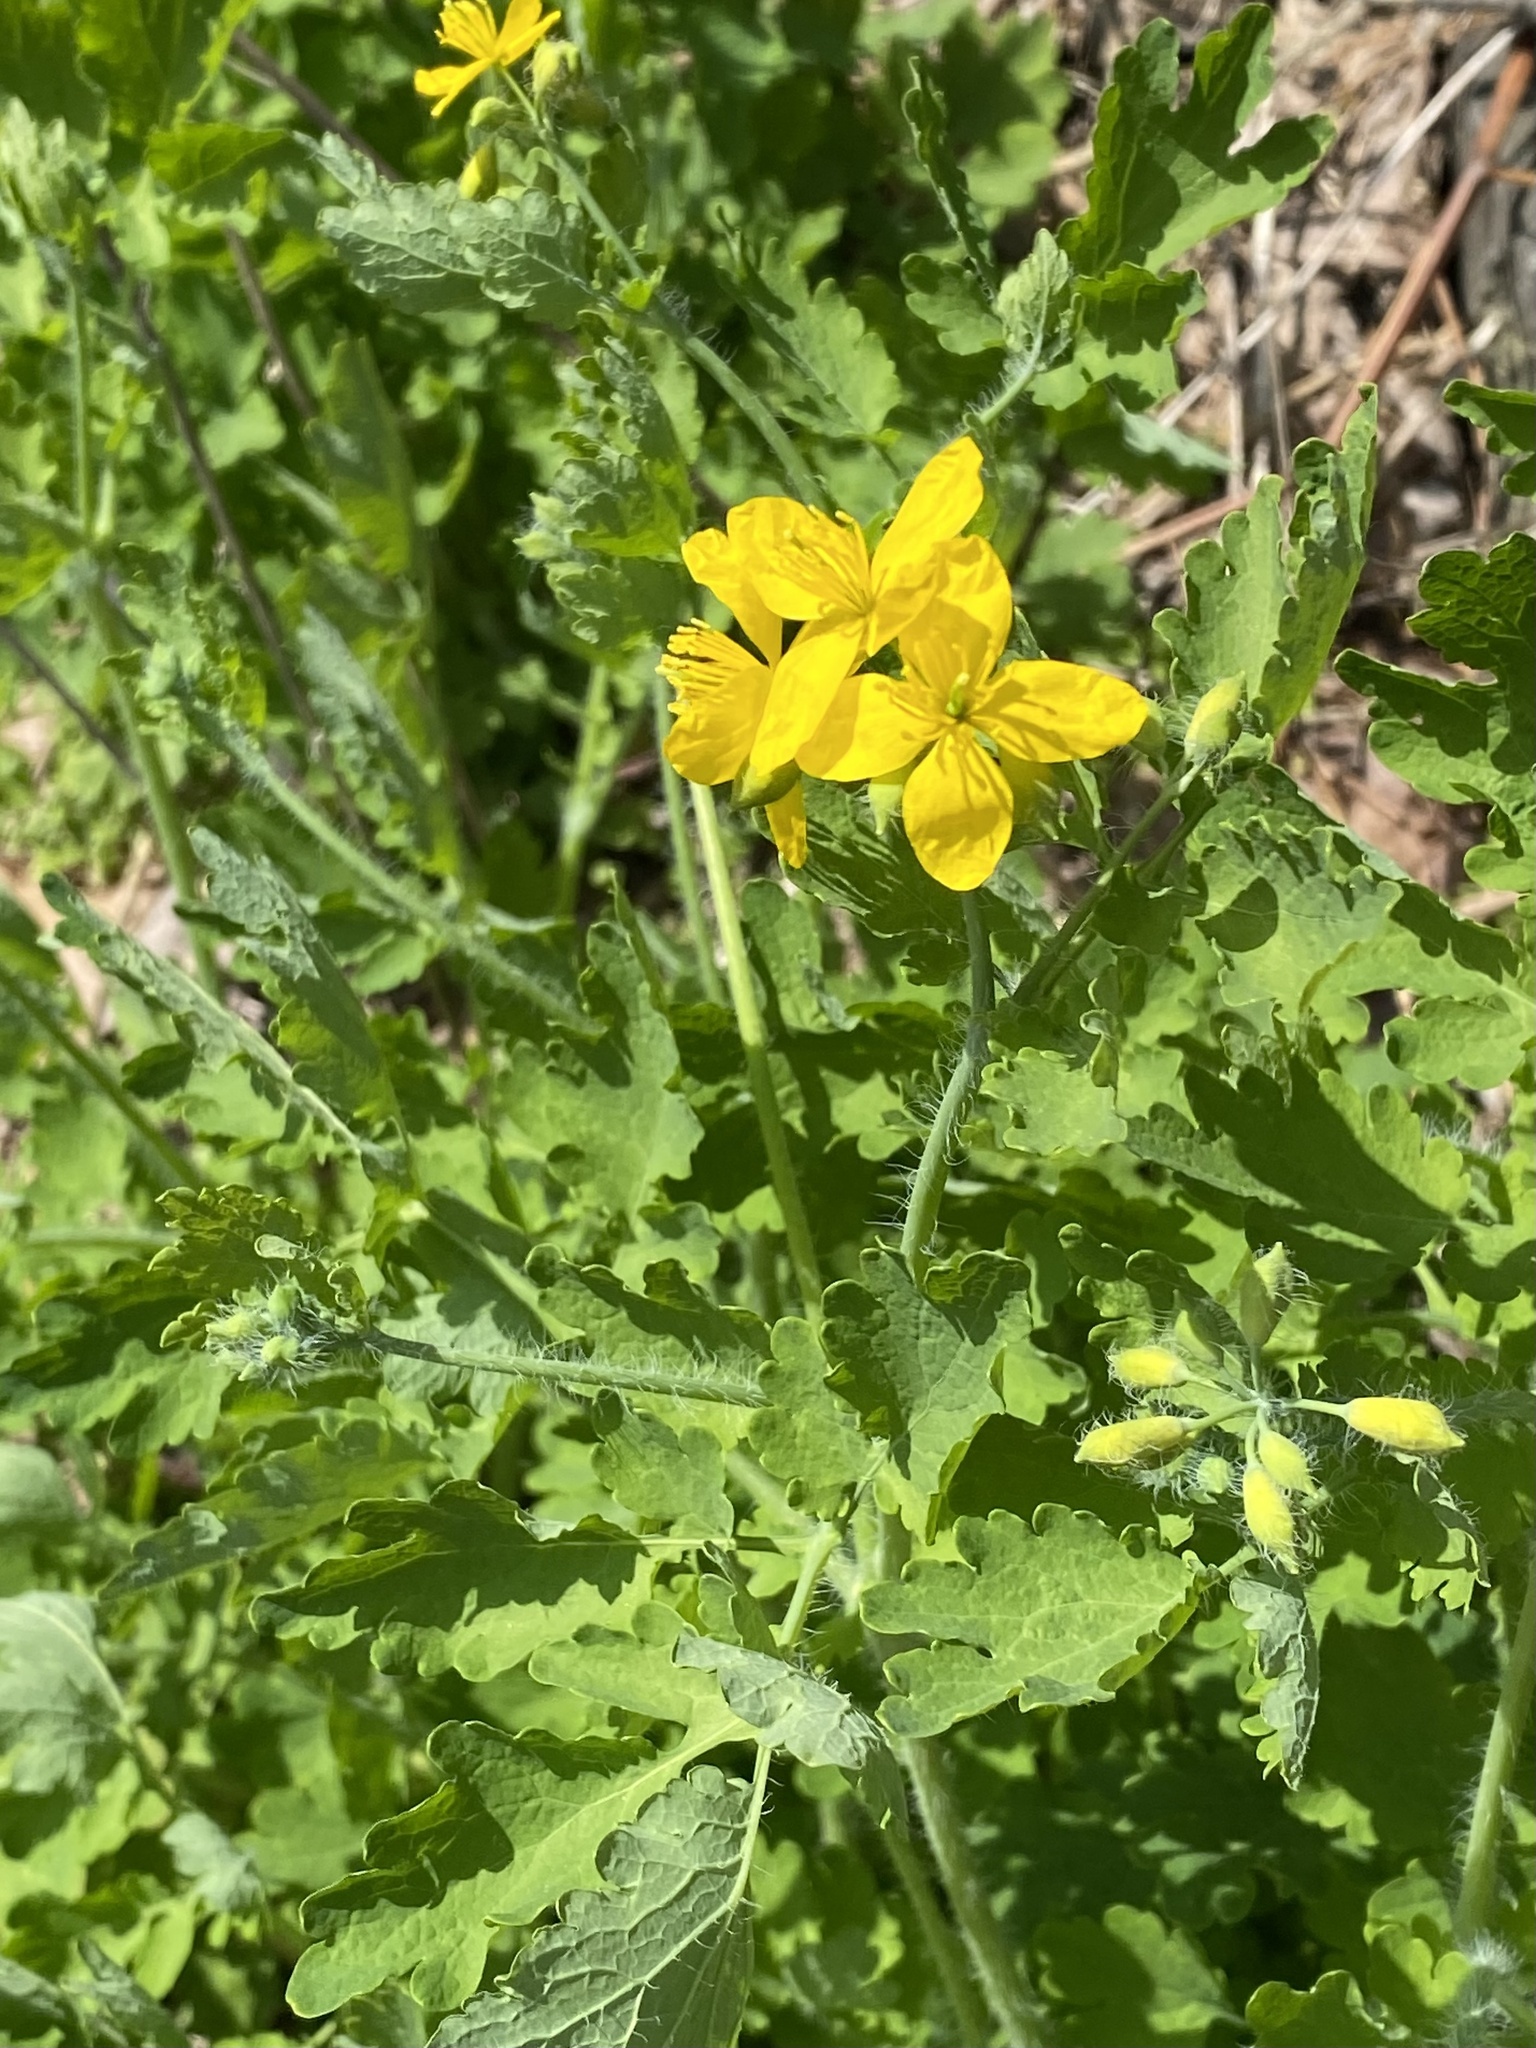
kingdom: Plantae
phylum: Tracheophyta
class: Magnoliopsida
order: Ranunculales
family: Papaveraceae
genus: Chelidonium
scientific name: Chelidonium majus
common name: Greater celandine
